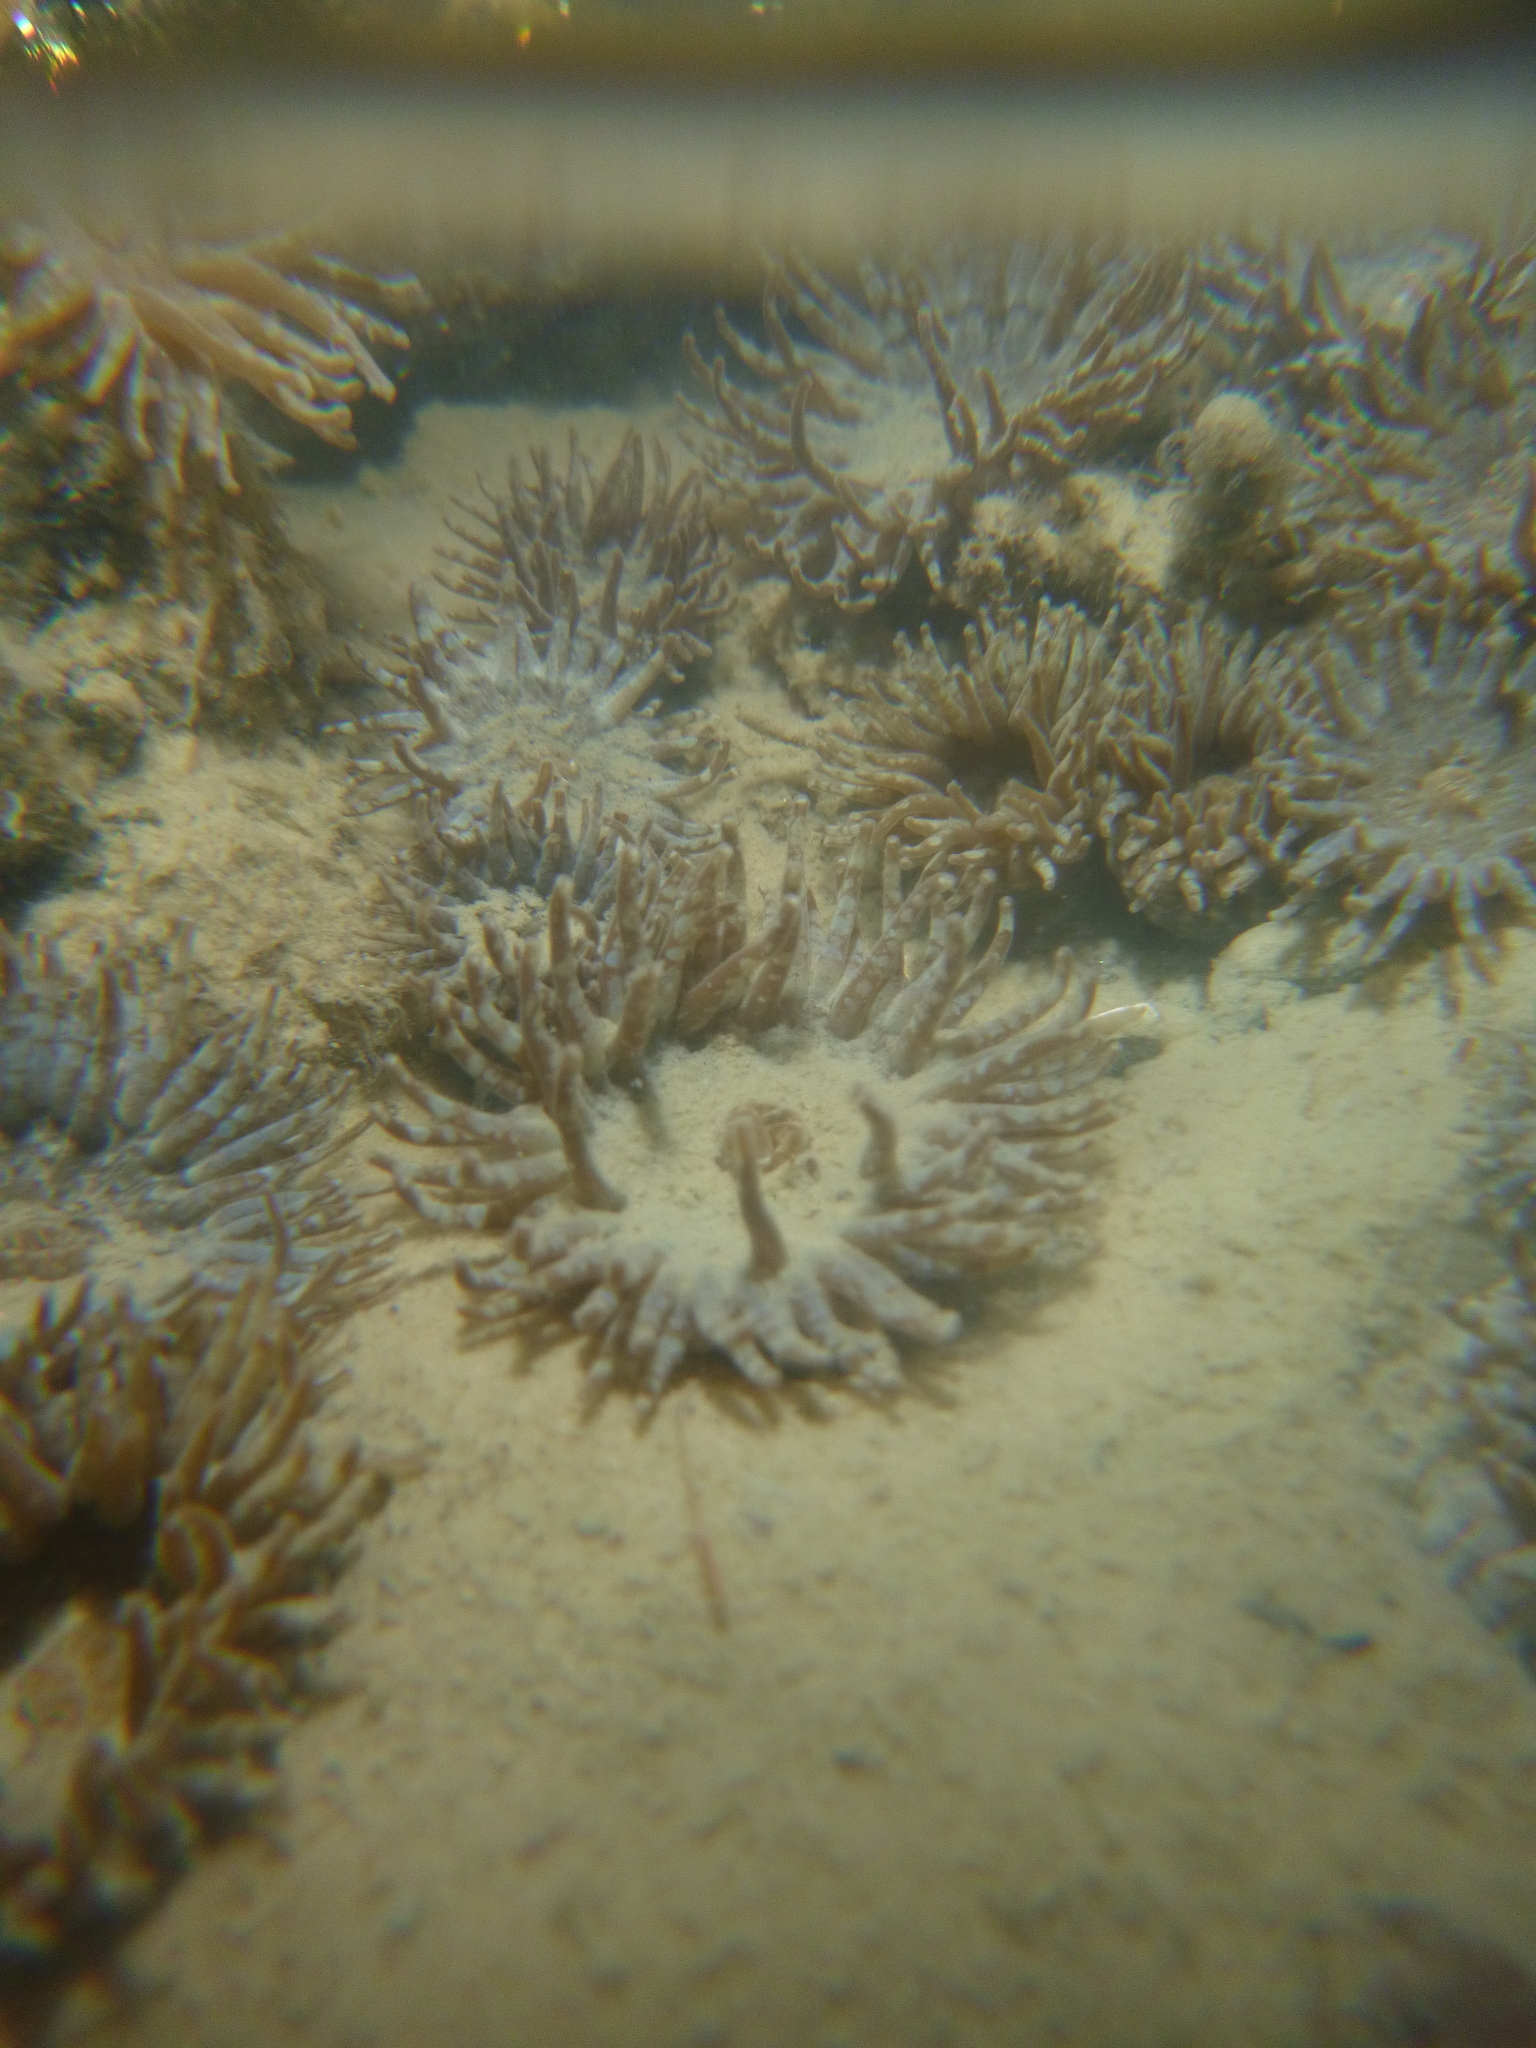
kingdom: Animalia
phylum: Cnidaria
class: Anthozoa
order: Actiniaria
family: Actiniidae
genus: Anthopleura
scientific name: Anthopleura hermaphroditica
